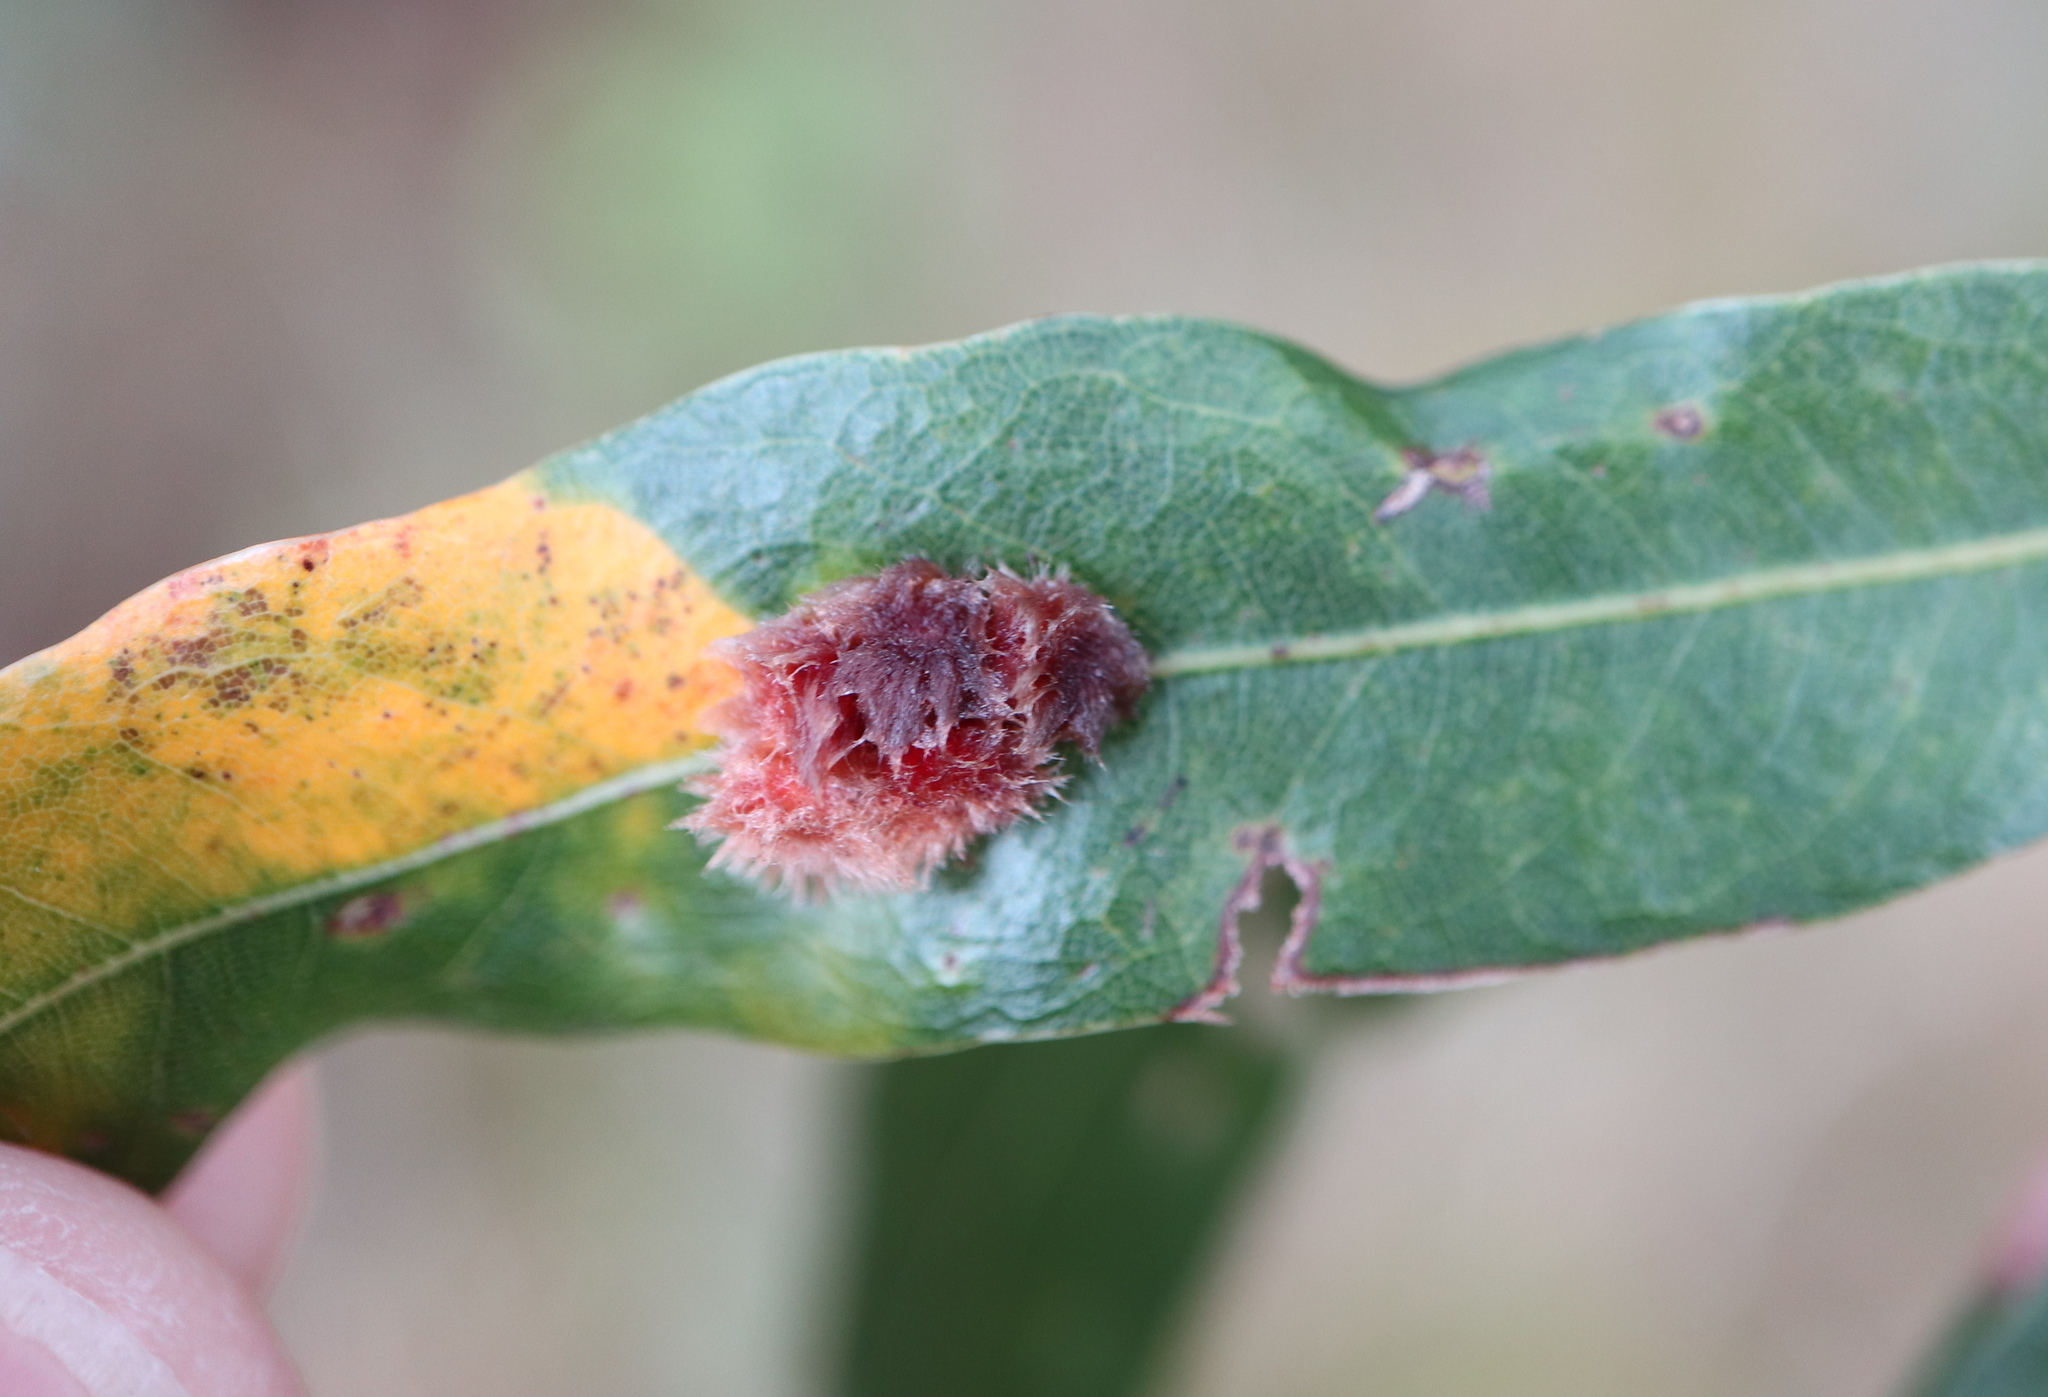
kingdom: Animalia
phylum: Arthropoda
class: Insecta
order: Hymenoptera
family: Cynipidae
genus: Callirhytis
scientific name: Callirhytis
